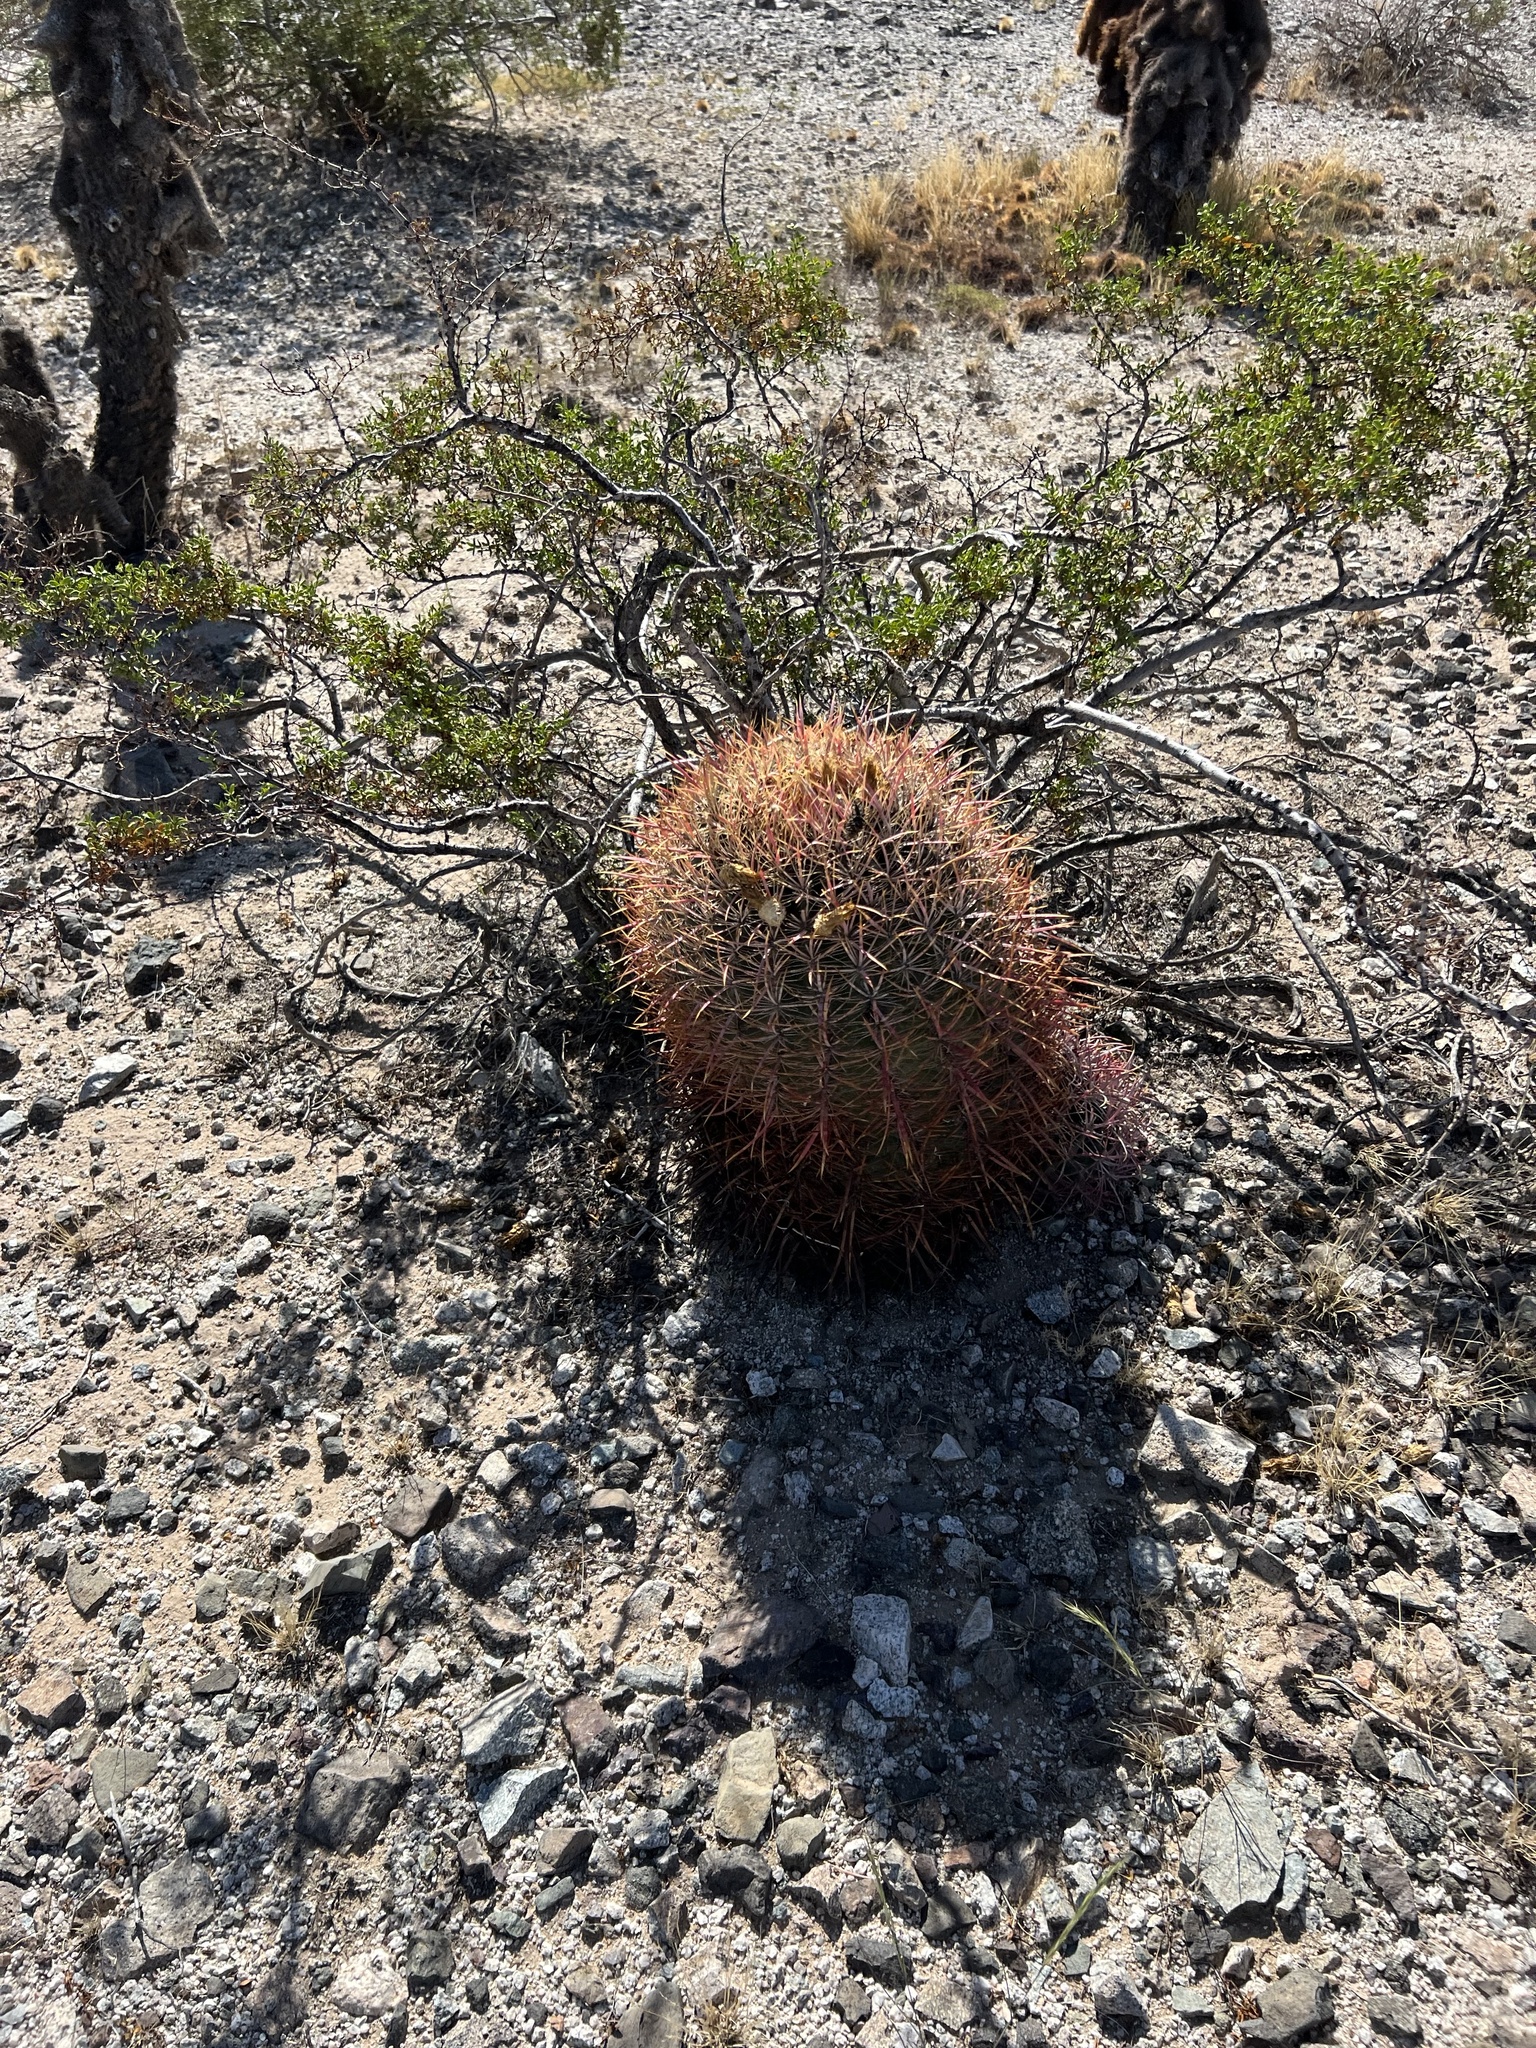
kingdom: Plantae
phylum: Tracheophyta
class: Magnoliopsida
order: Caryophyllales
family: Cactaceae
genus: Ferocactus
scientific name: Ferocactus cylindraceus
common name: California barrel cactus
